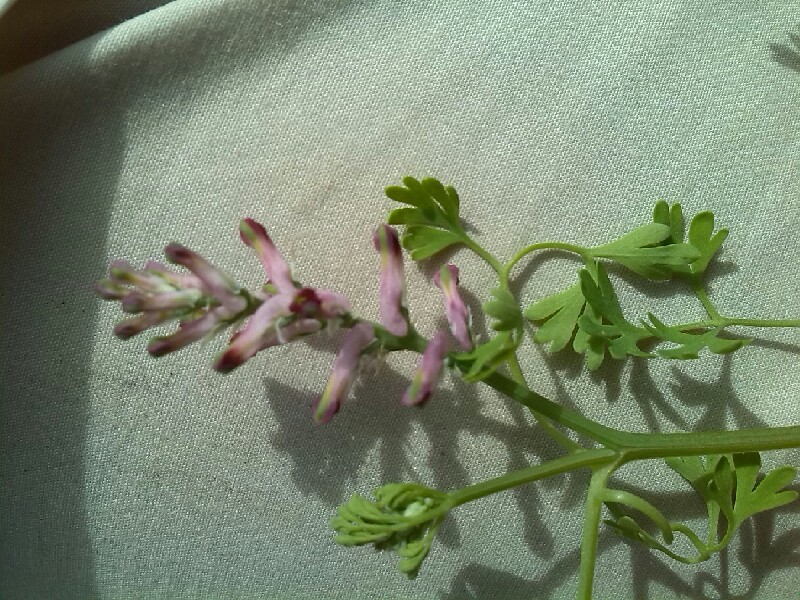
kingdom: Plantae
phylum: Tracheophyta
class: Magnoliopsida
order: Ranunculales
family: Papaveraceae
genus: Fumaria
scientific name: Fumaria officinalis
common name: Common fumitory
